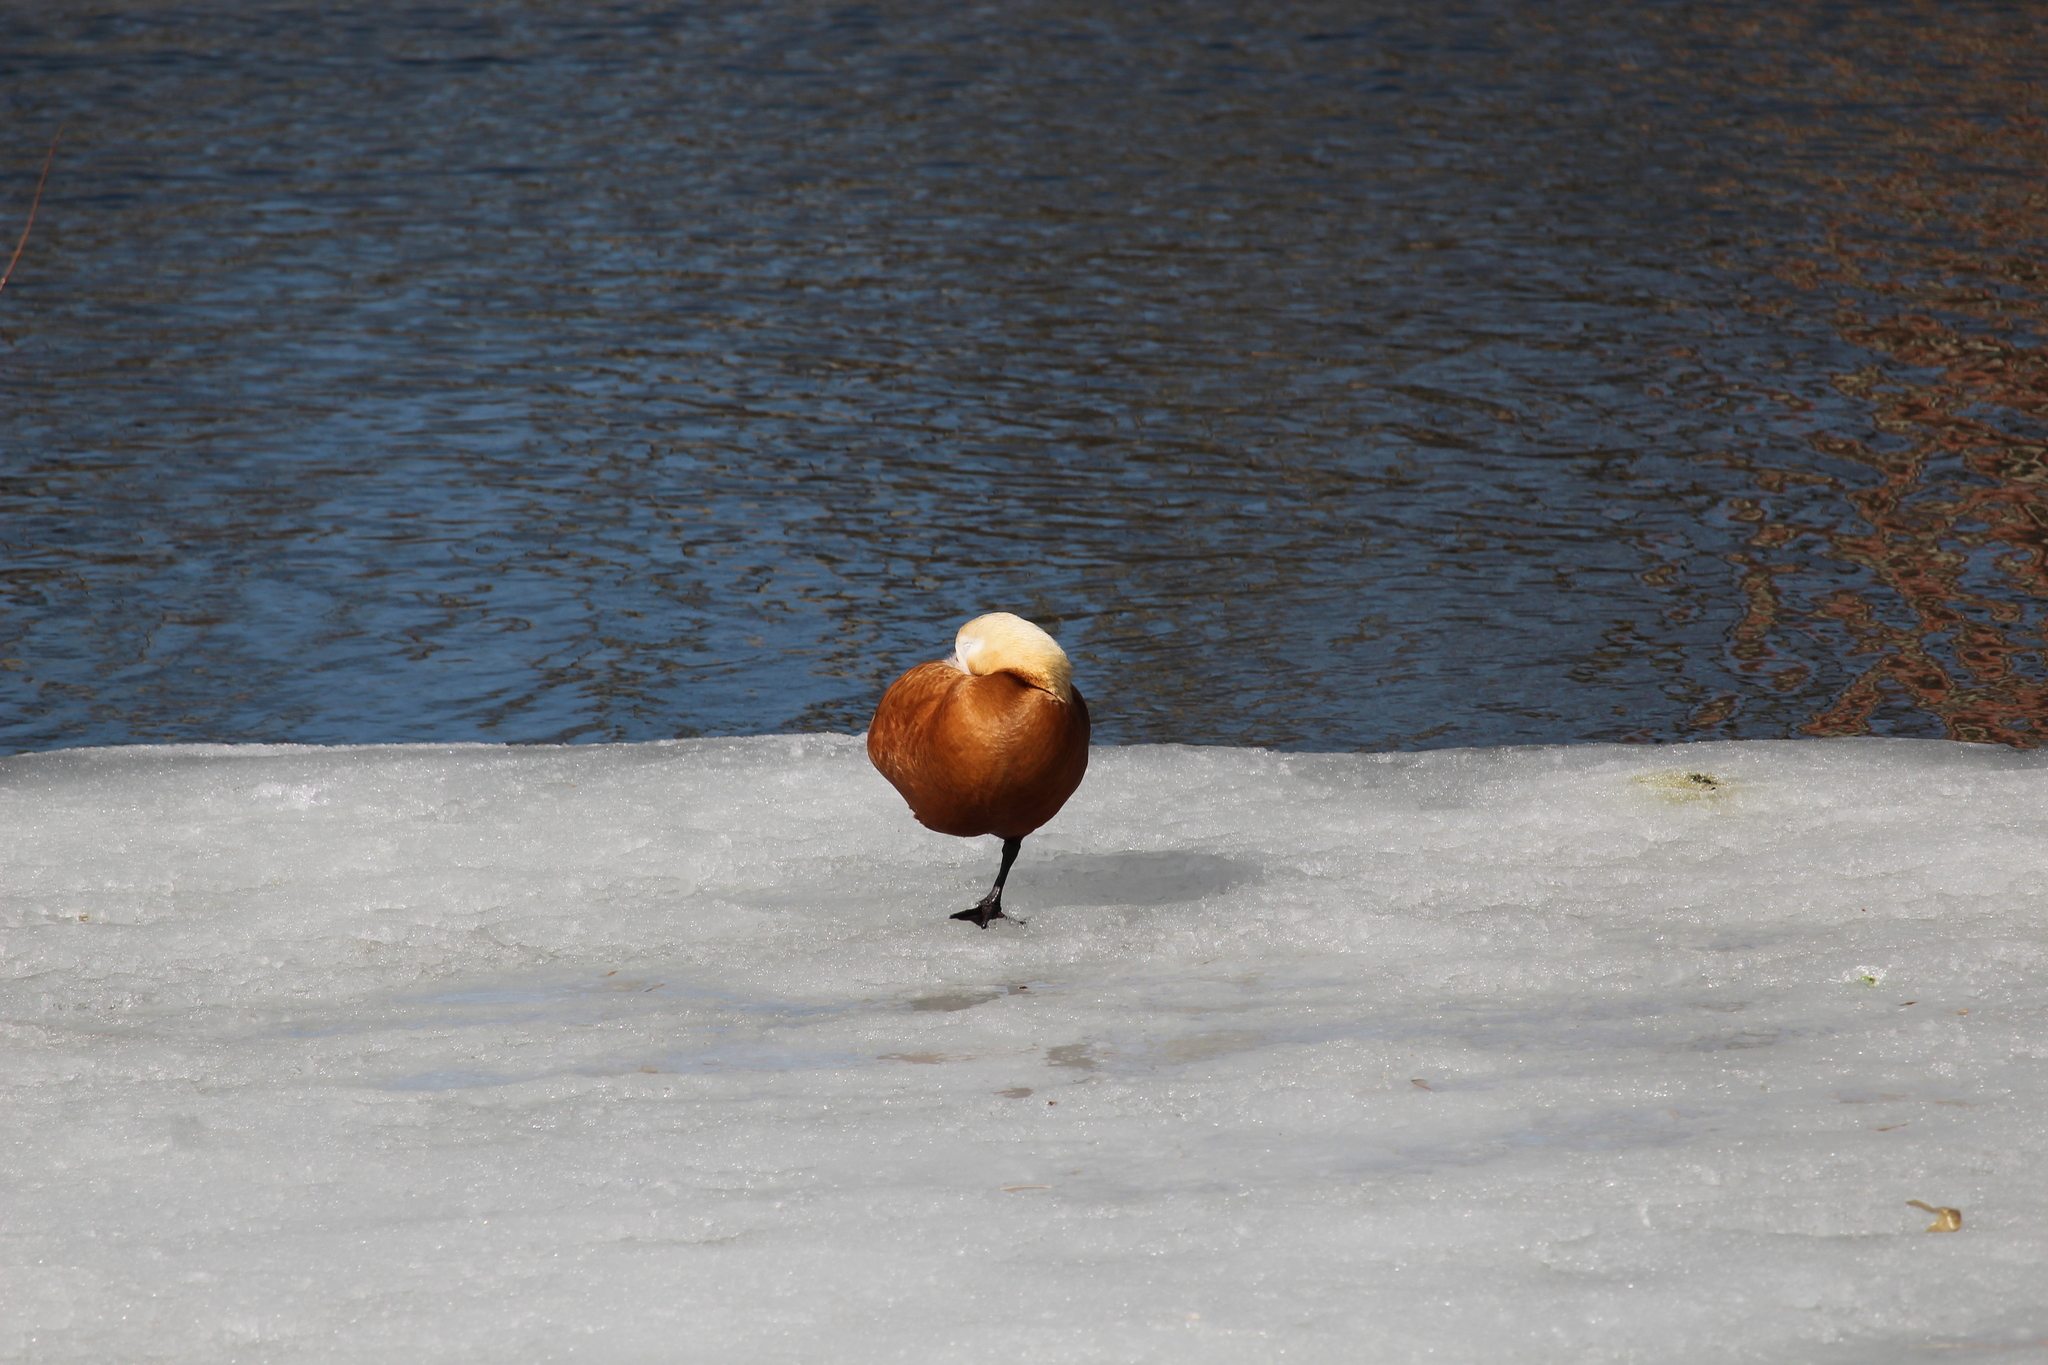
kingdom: Animalia
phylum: Chordata
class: Aves
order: Anseriformes
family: Anatidae
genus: Tadorna
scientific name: Tadorna ferruginea
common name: Ruddy shelduck
